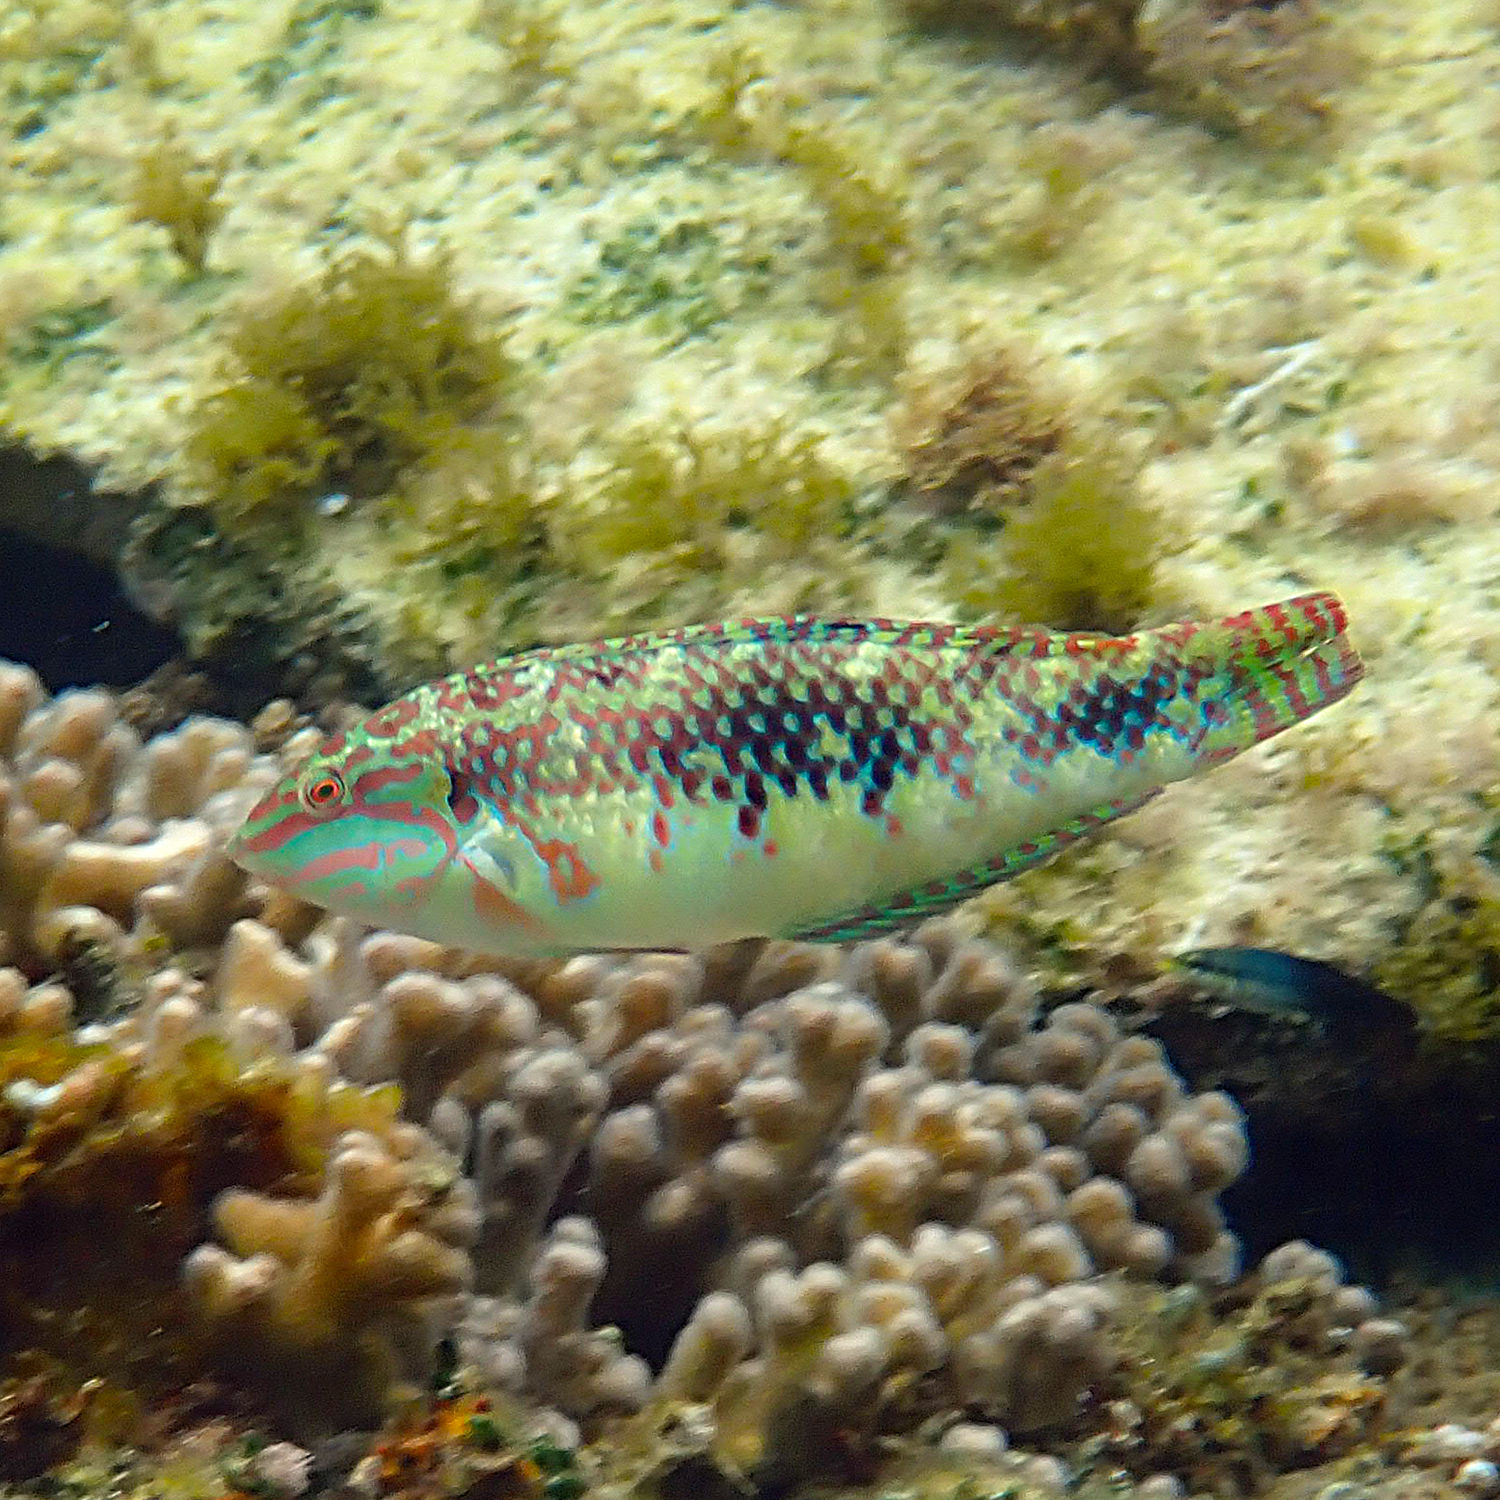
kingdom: Animalia
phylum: Chordata
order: Perciformes
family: Labridae
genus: Halichoeres
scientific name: Halichoeres margaritaceus
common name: Pink-belly wrasse
